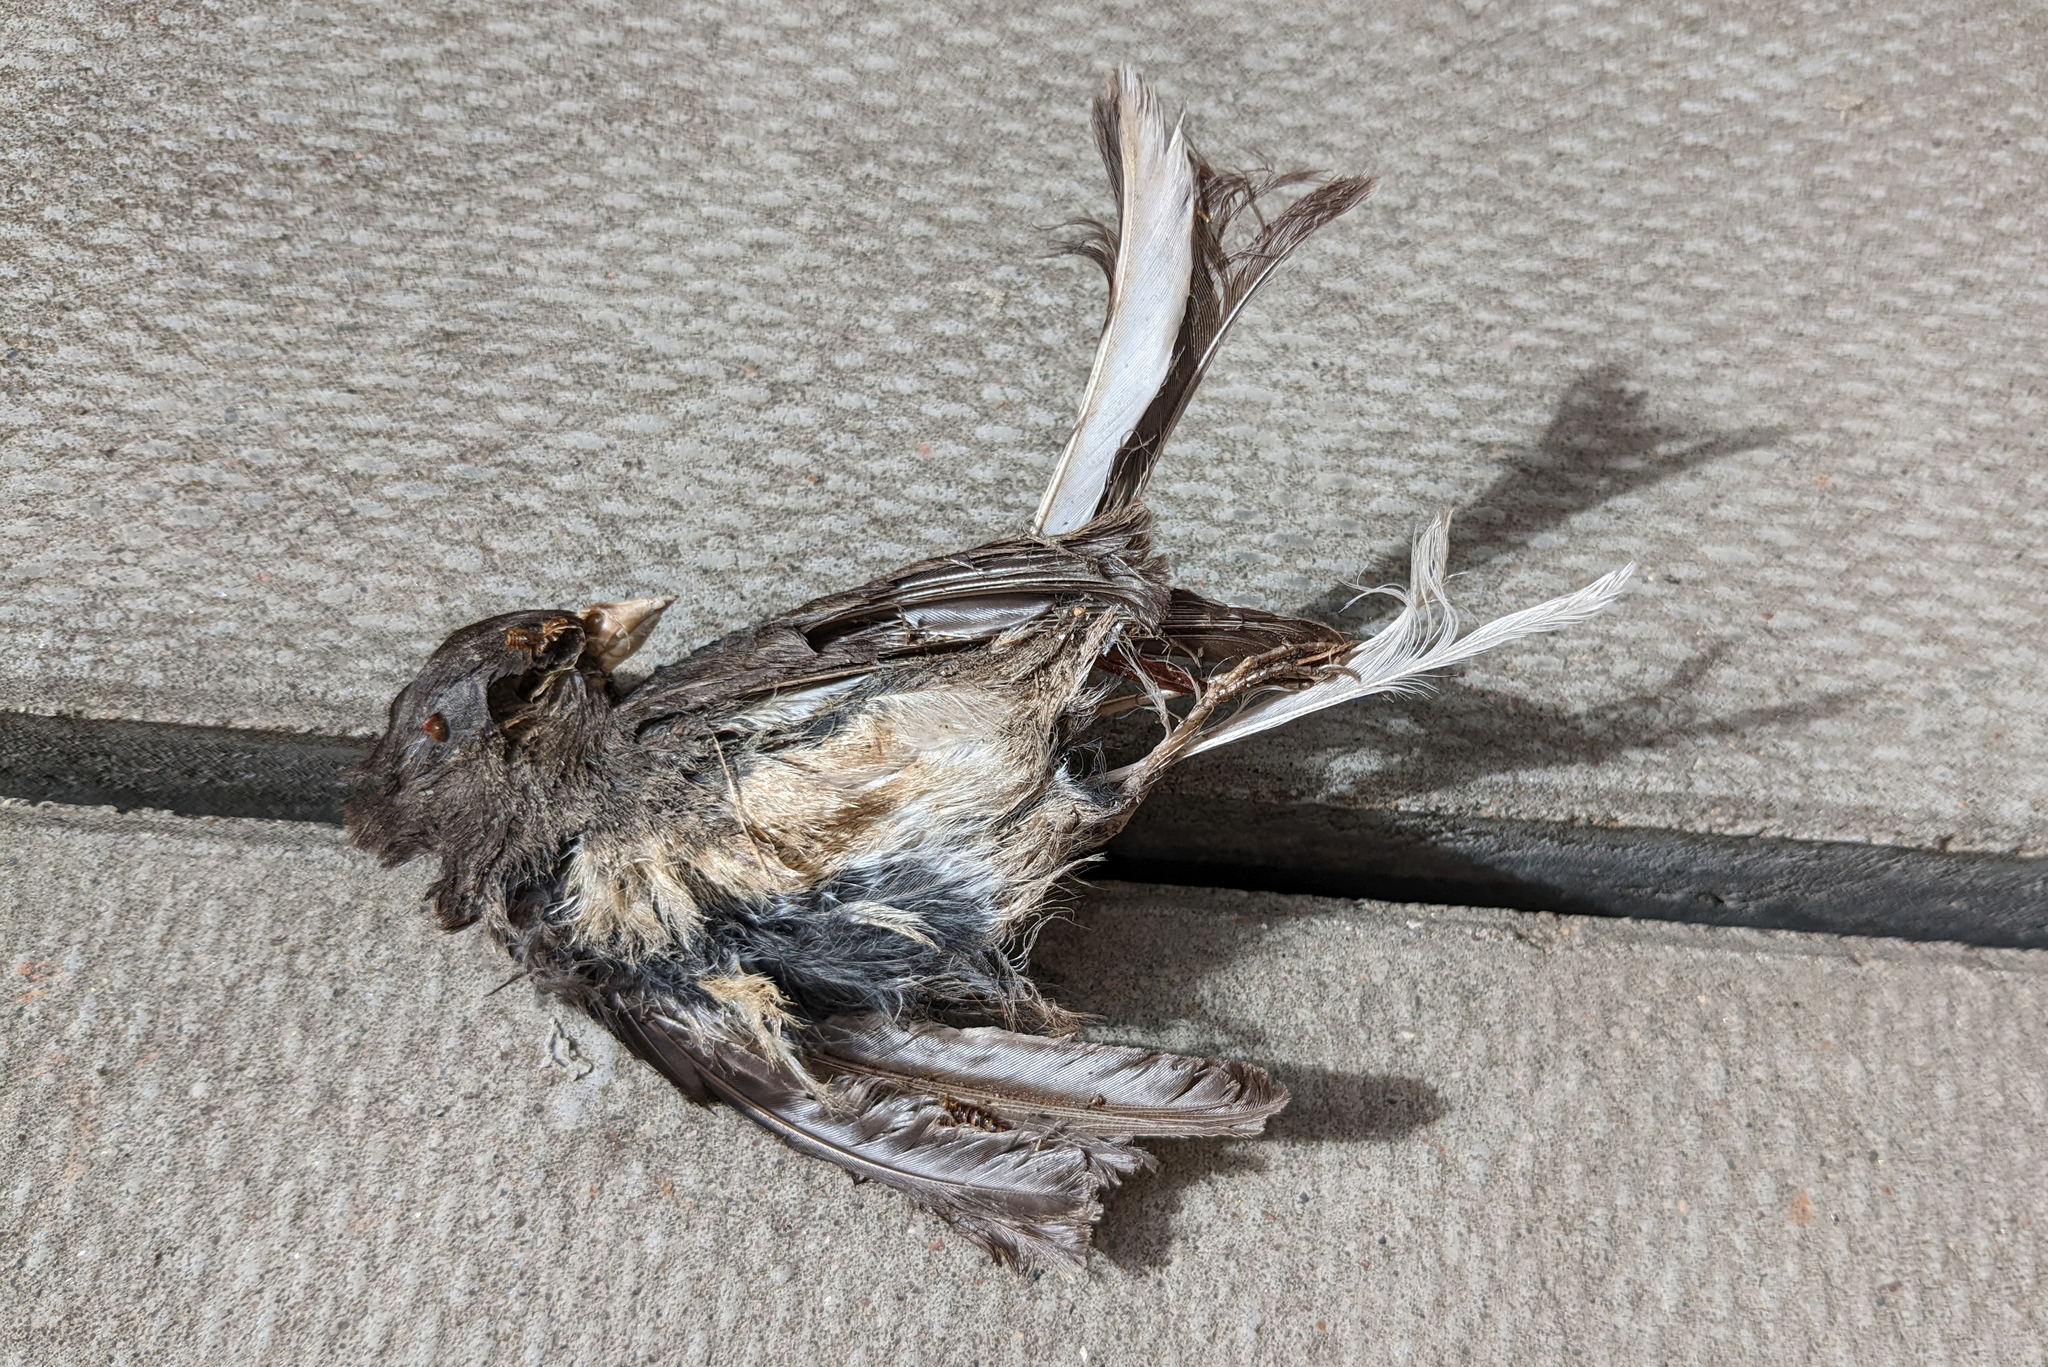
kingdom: Animalia
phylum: Chordata
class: Aves
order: Passeriformes
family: Passerellidae
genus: Junco
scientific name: Junco hyemalis
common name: Dark-eyed junco
